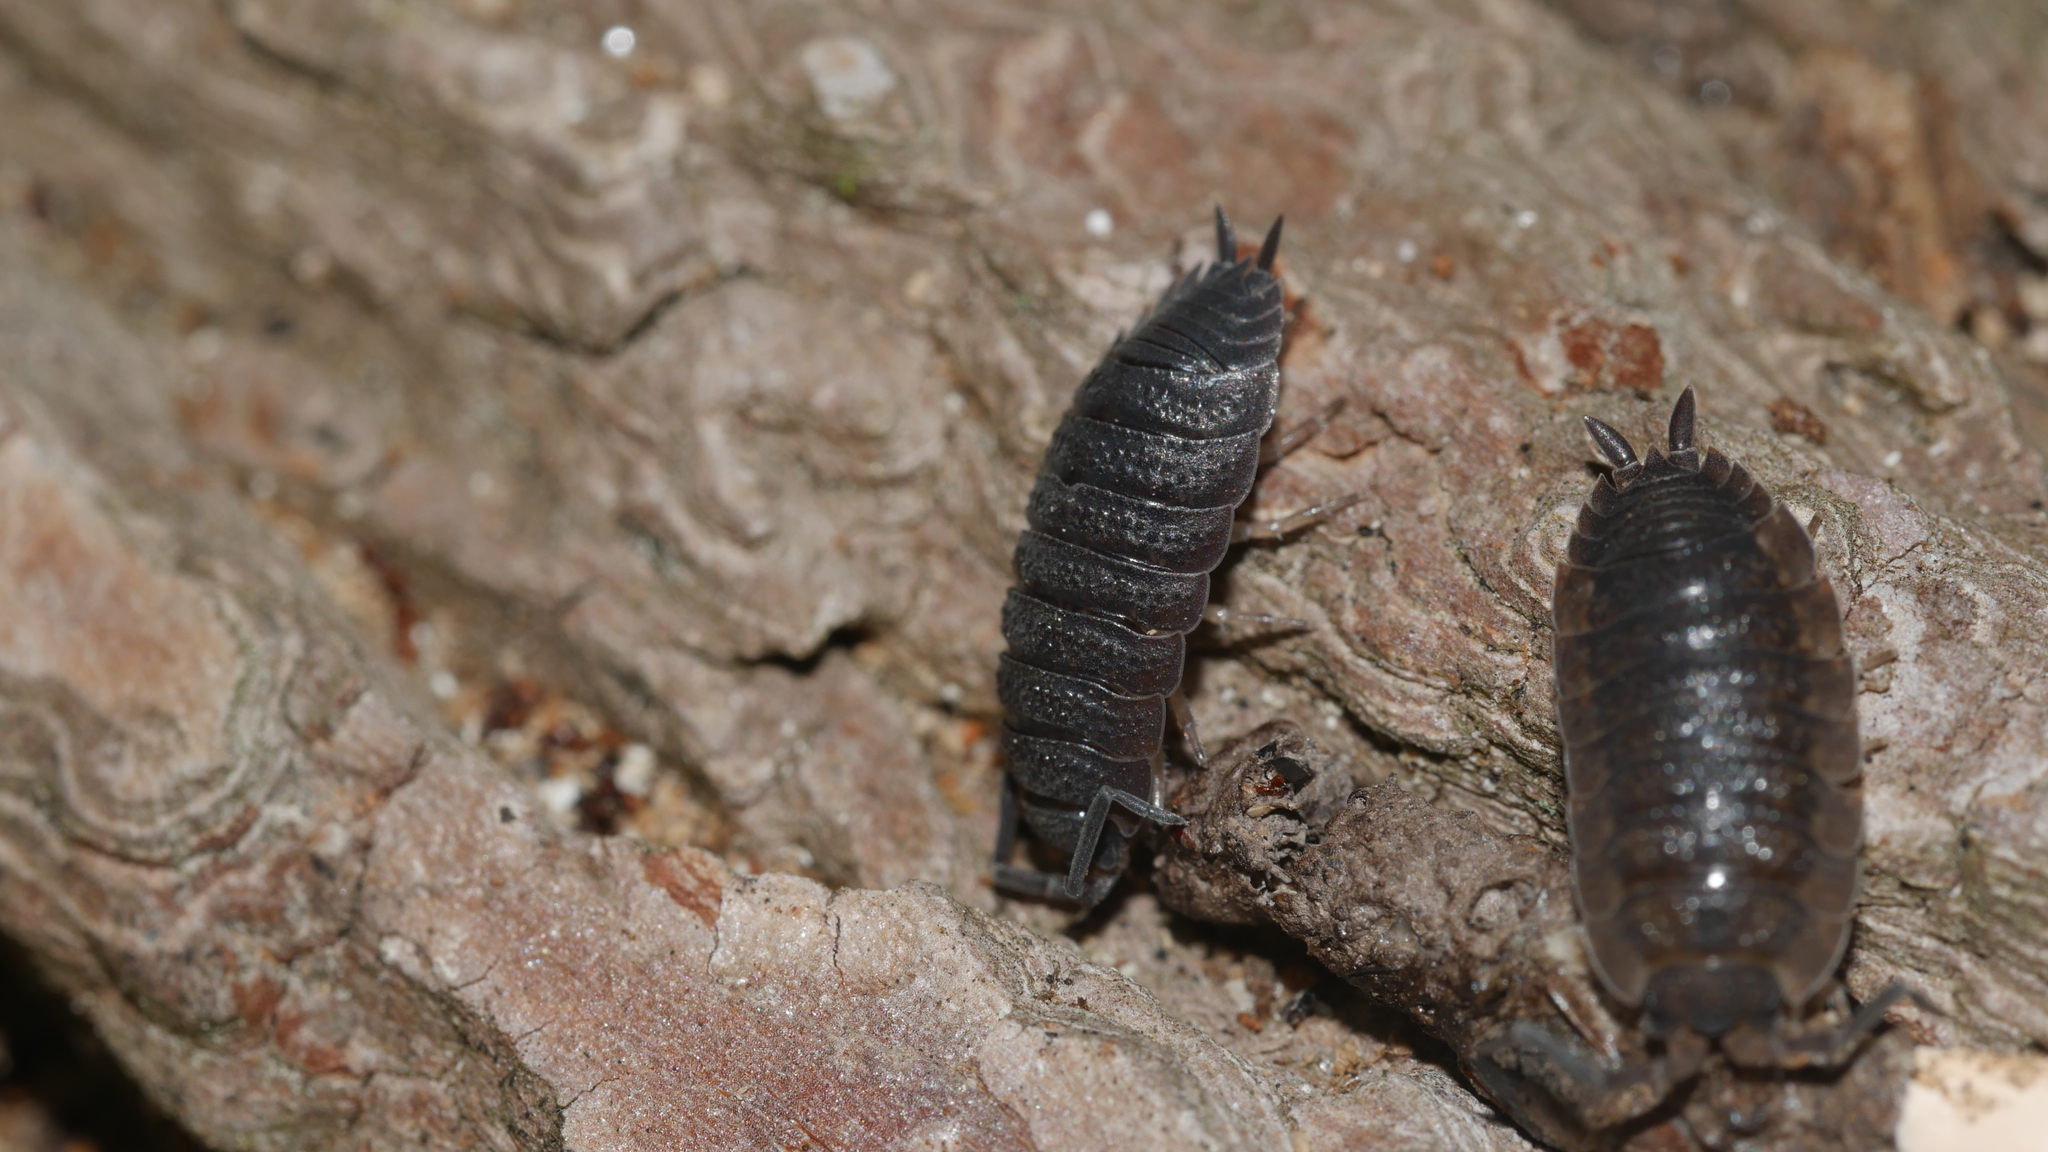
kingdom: Animalia
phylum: Arthropoda
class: Malacostraca
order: Isopoda
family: Porcellionidae
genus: Porcellio
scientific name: Porcellio scaber
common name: Common rough woodlouse
